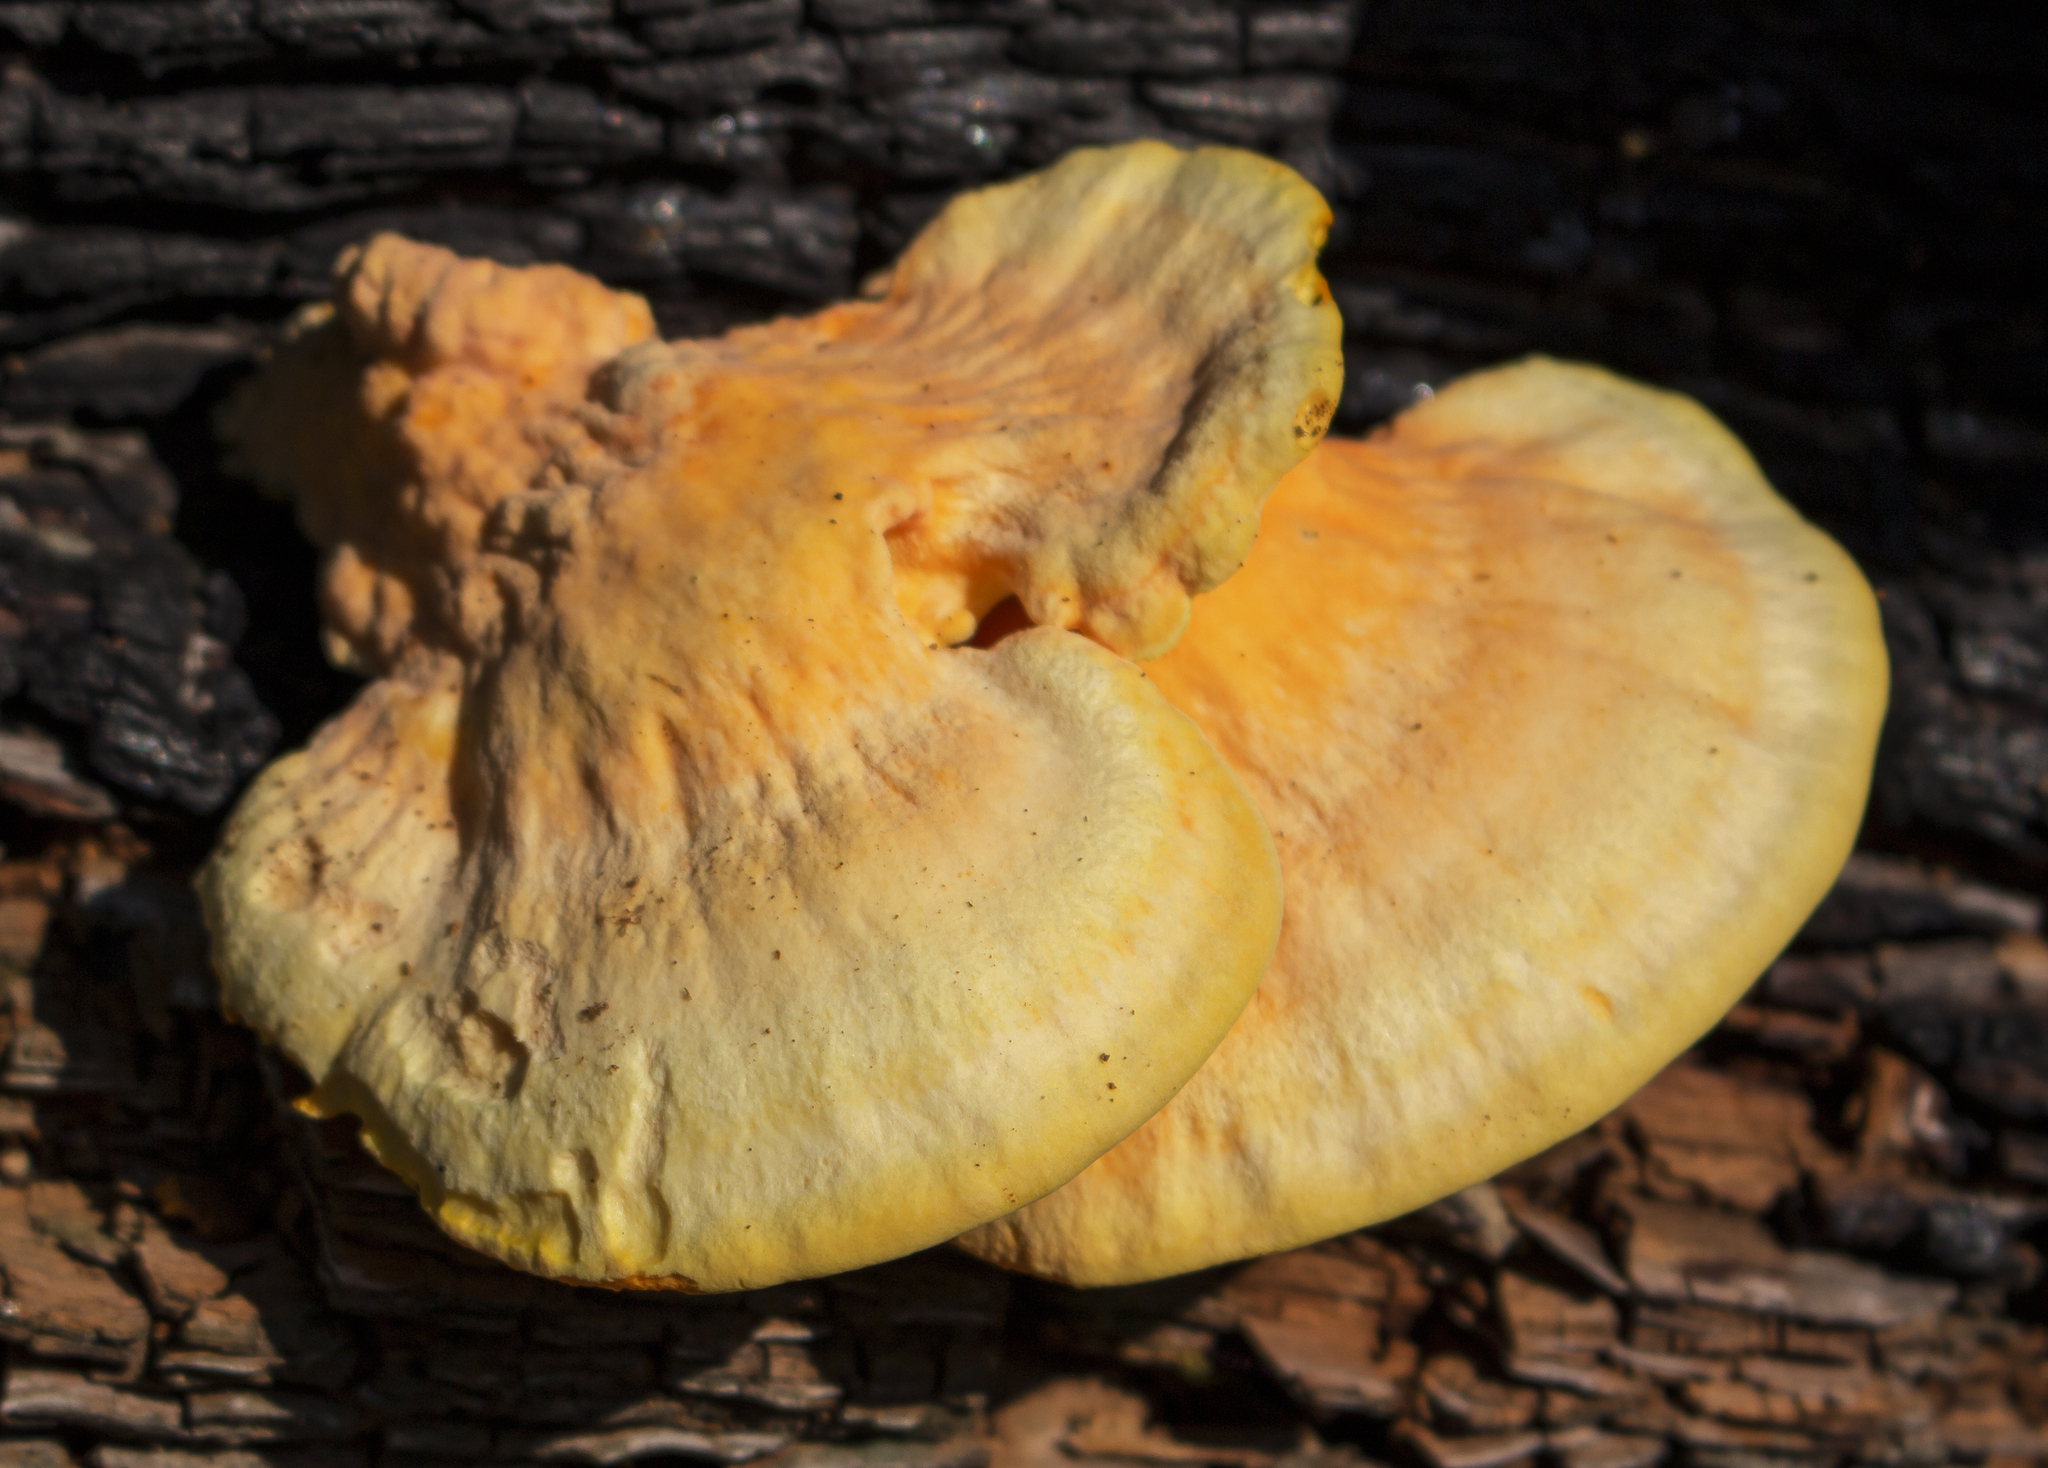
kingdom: Fungi
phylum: Basidiomycota
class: Agaricomycetes
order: Polyporales
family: Laetiporaceae
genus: Laetiporus
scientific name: Laetiporus sulphureus
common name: Chicken of the woods
